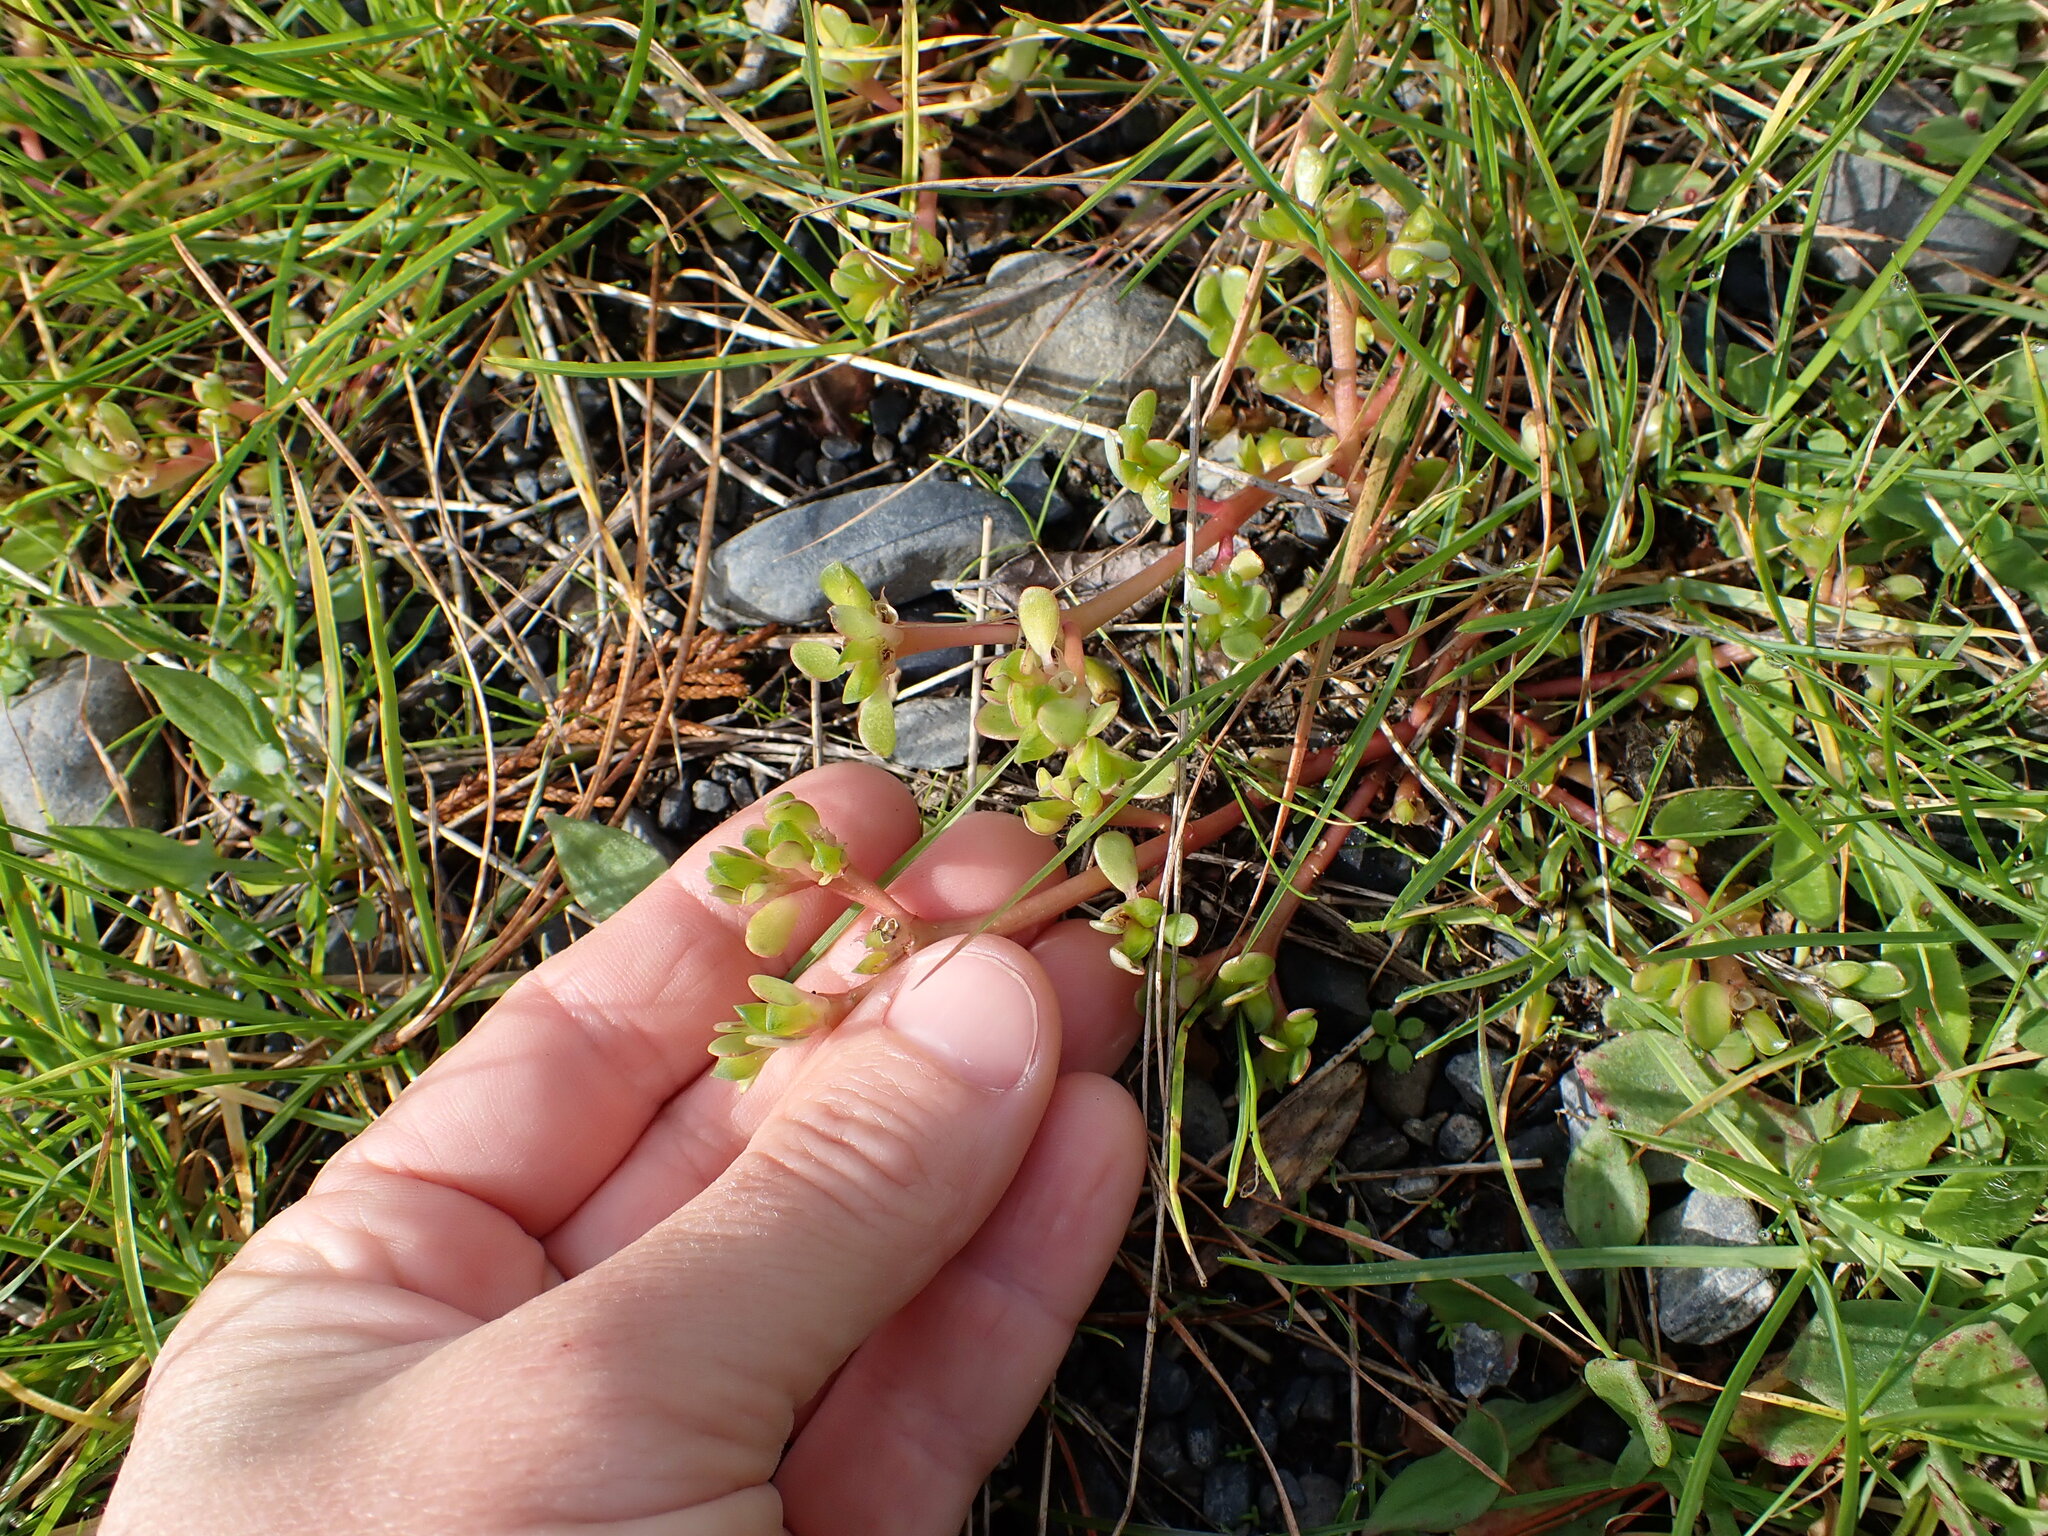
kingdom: Plantae
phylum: Tracheophyta
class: Magnoliopsida
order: Caryophyllales
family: Portulacaceae
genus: Portulaca
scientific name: Portulaca oleracea
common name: Common purslane
